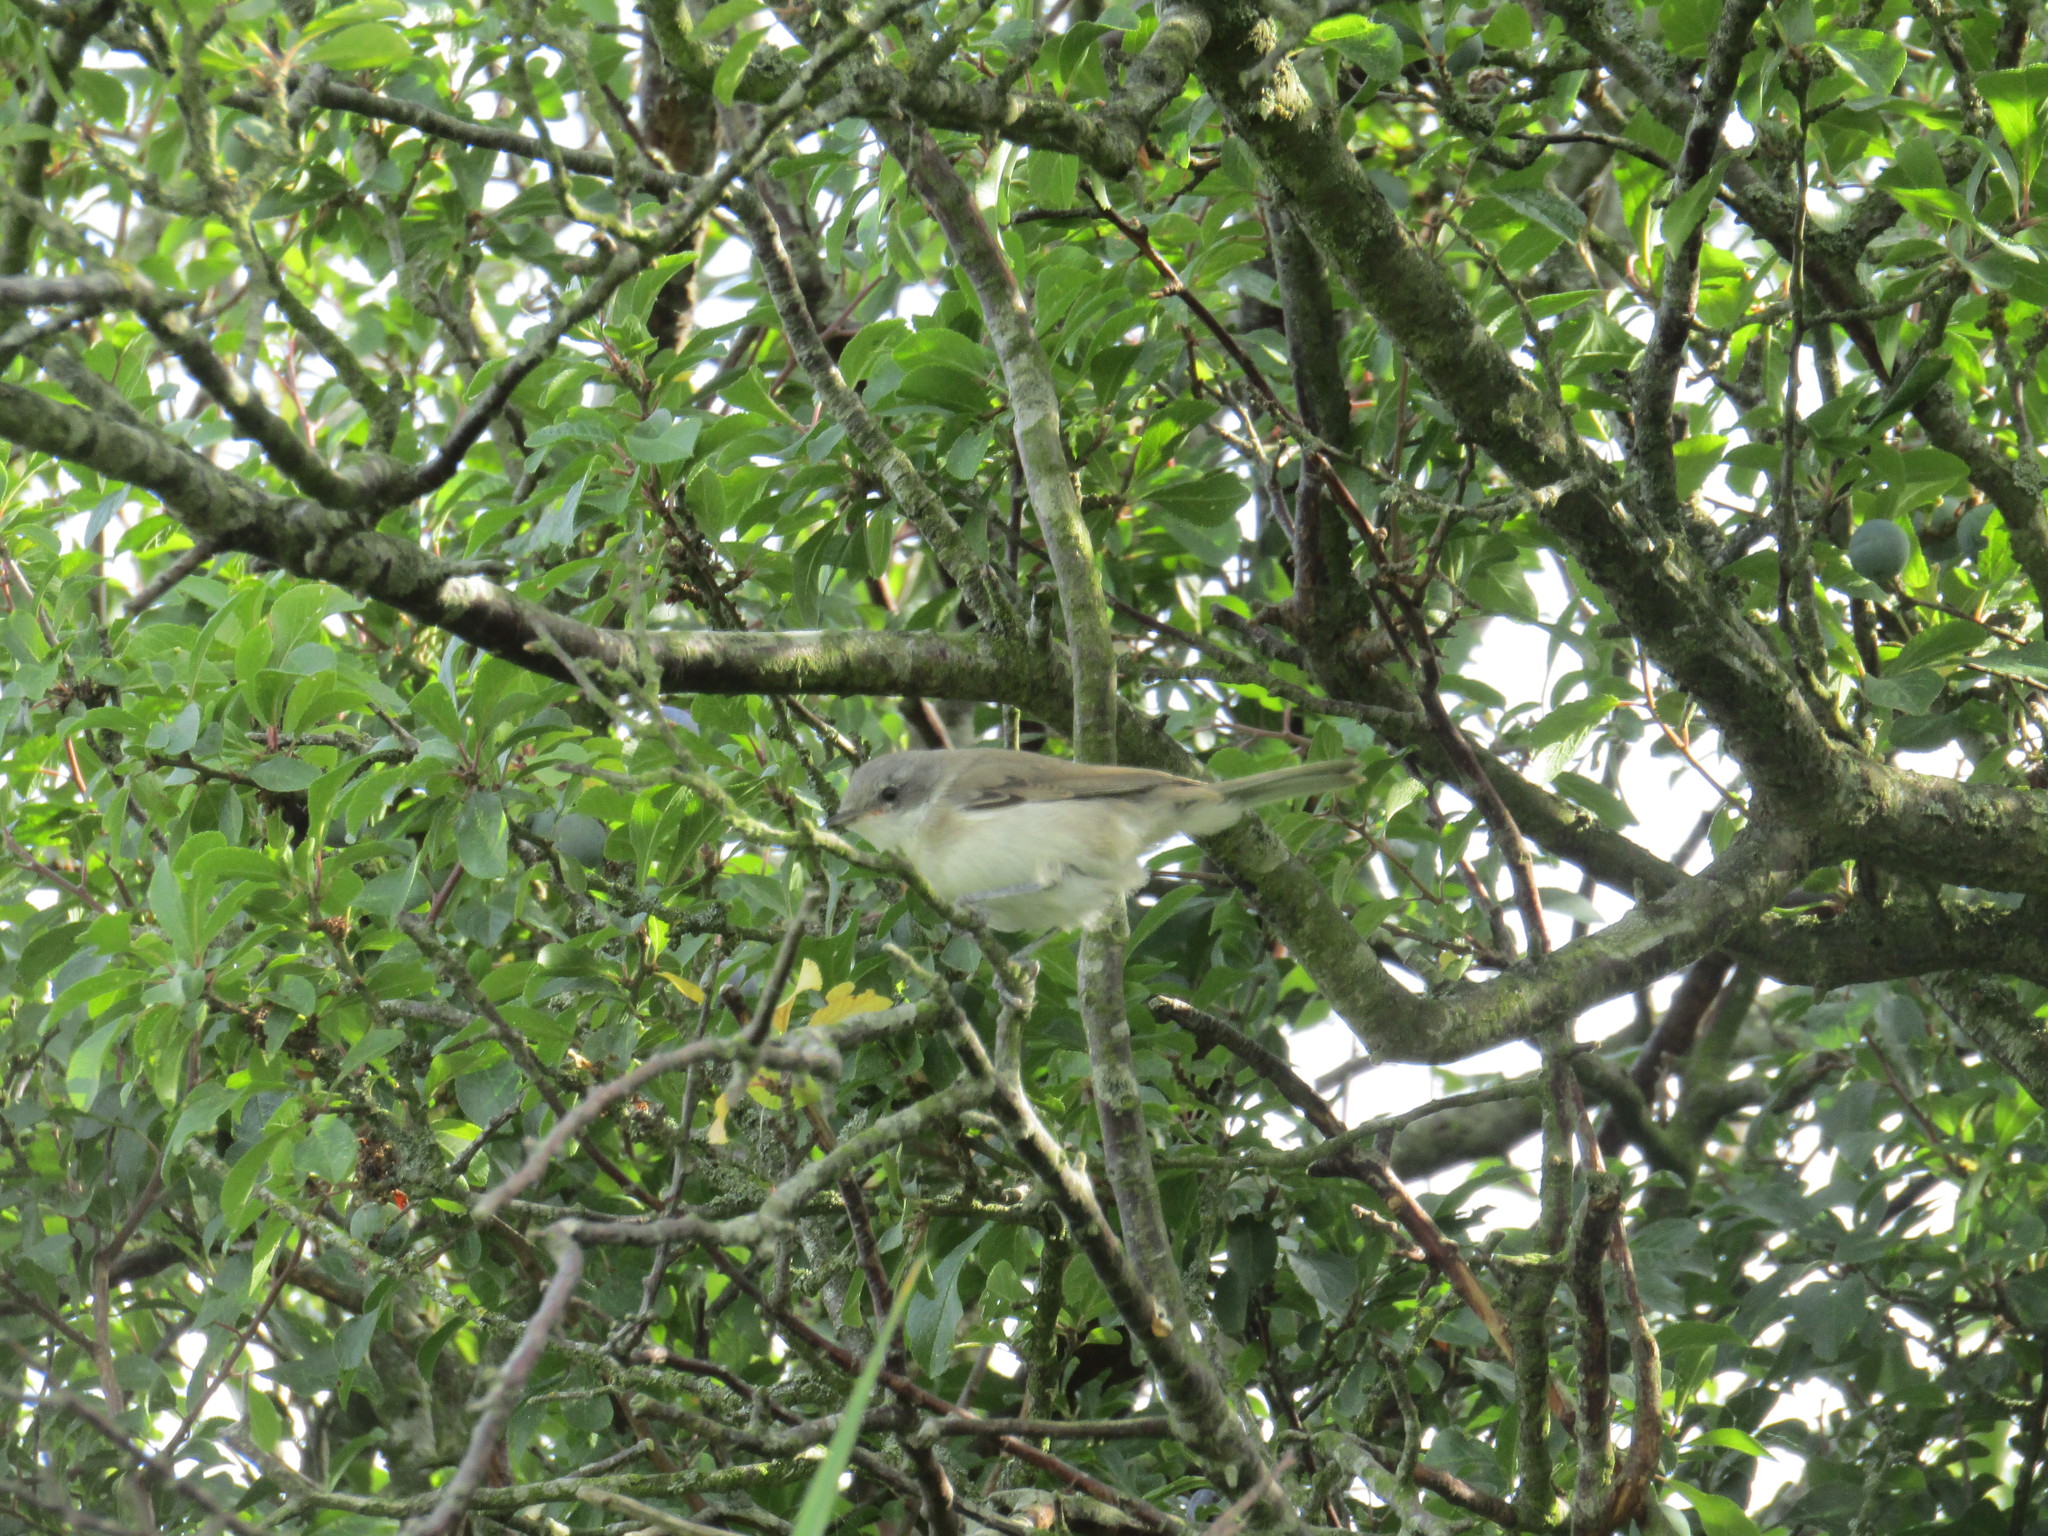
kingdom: Animalia
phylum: Chordata
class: Aves
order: Passeriformes
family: Sylviidae
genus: Sylvia
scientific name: Sylvia curruca
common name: Lesser whitethroat
